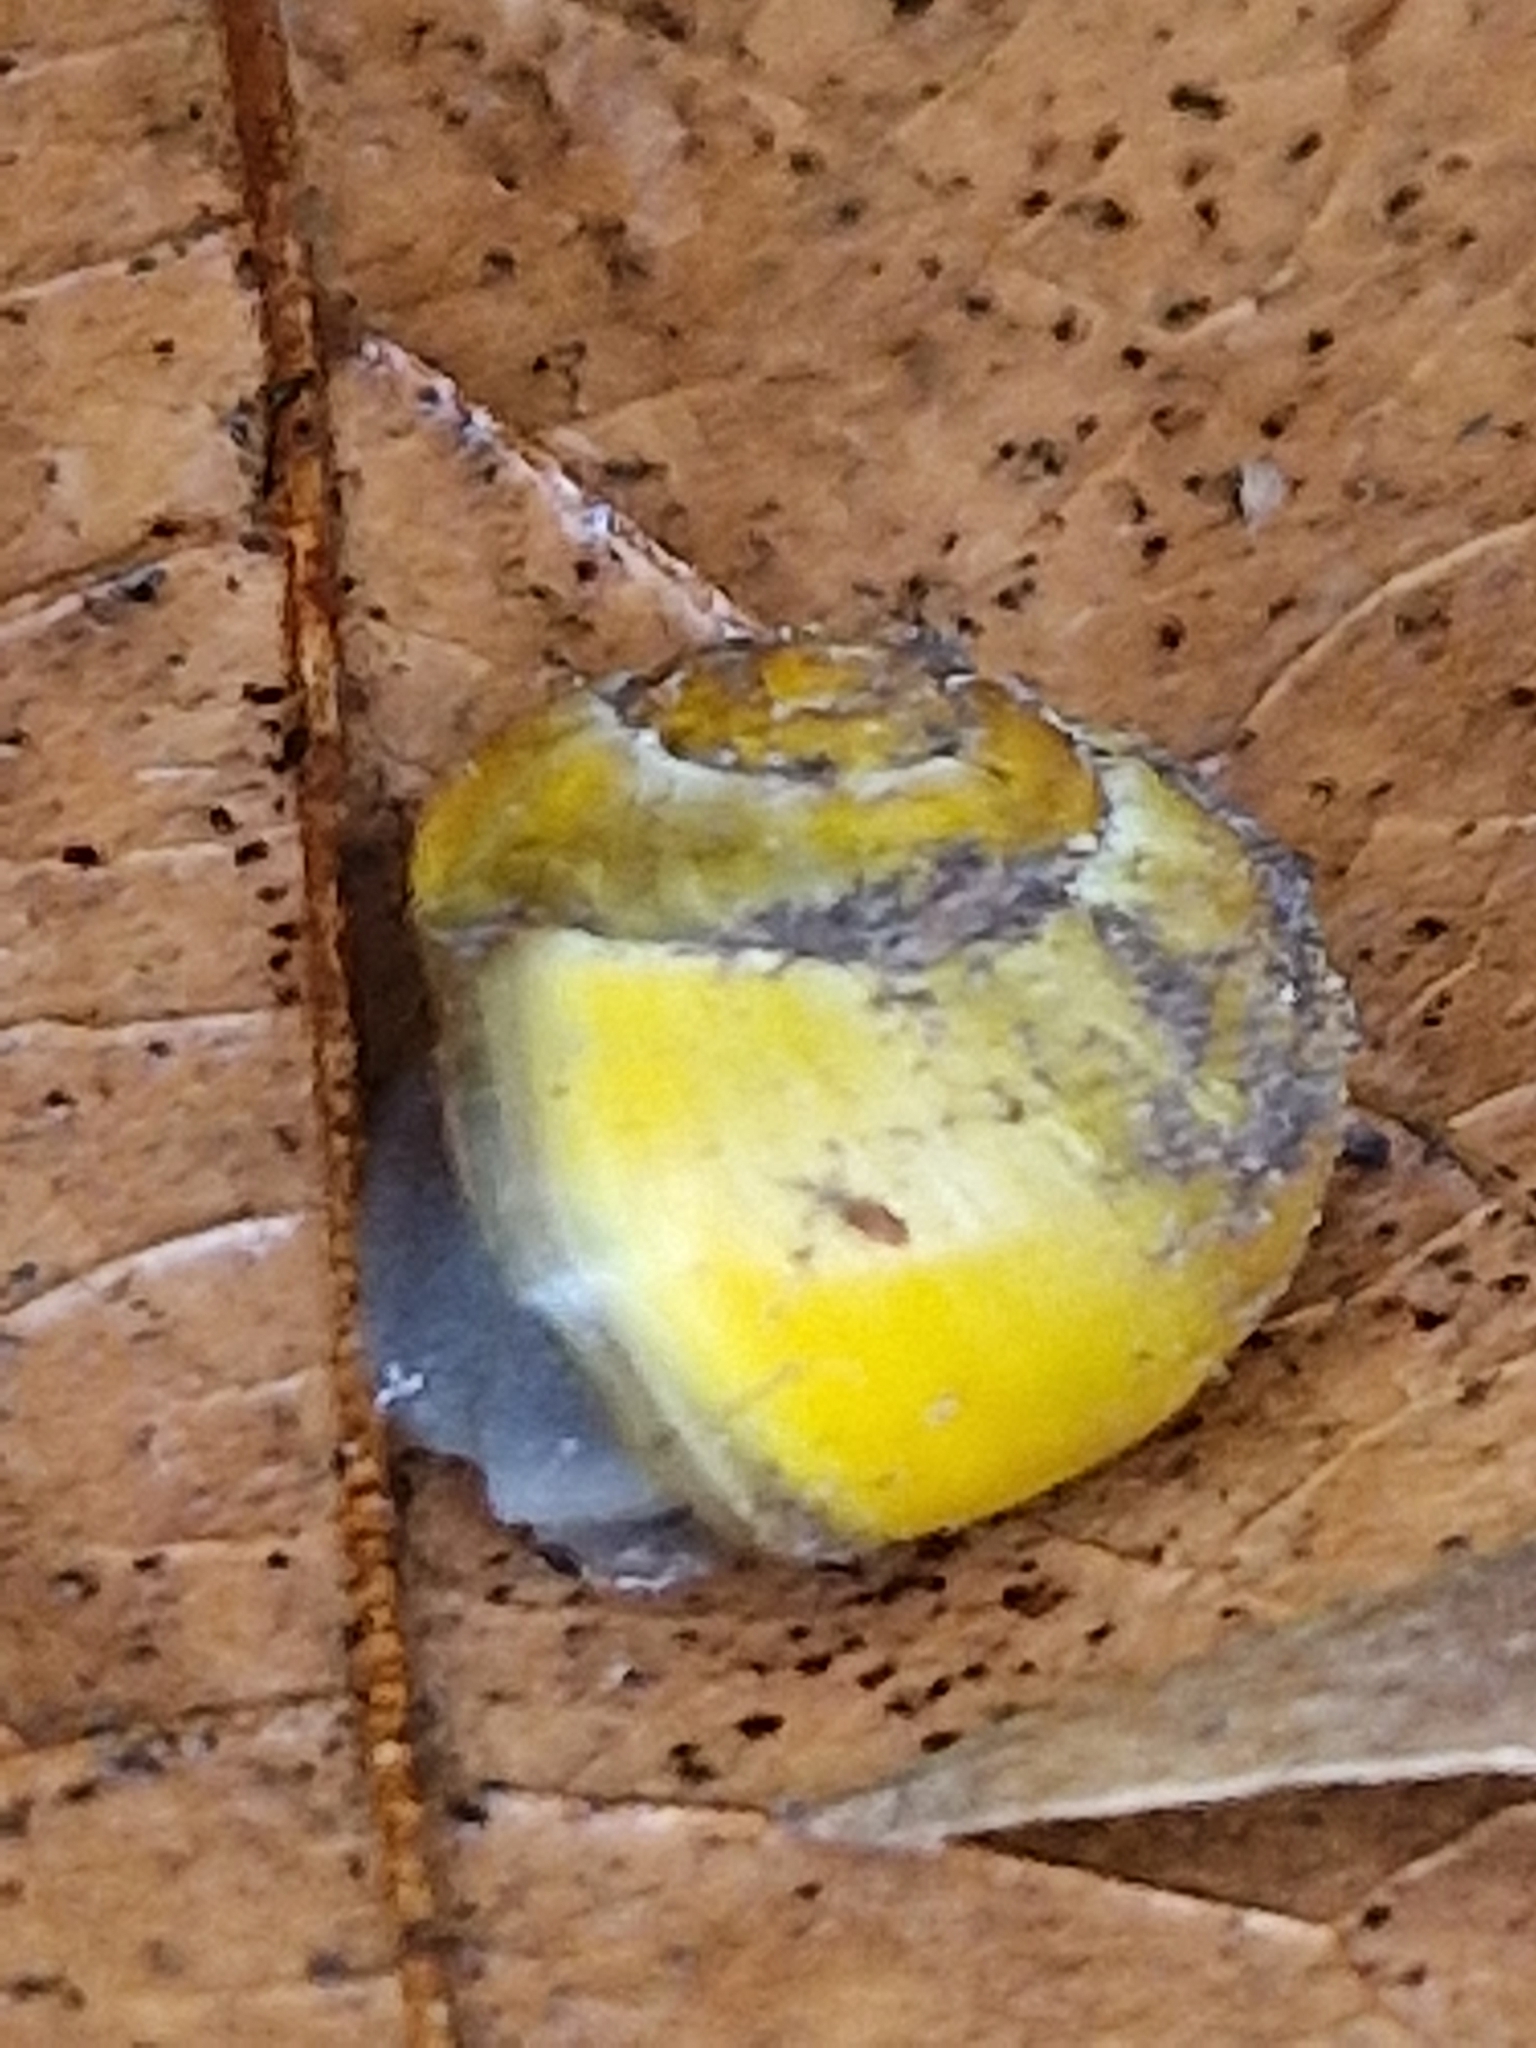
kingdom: Animalia
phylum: Mollusca
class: Gastropoda
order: Stylommatophora
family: Helicidae
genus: Cepaea
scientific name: Cepaea
